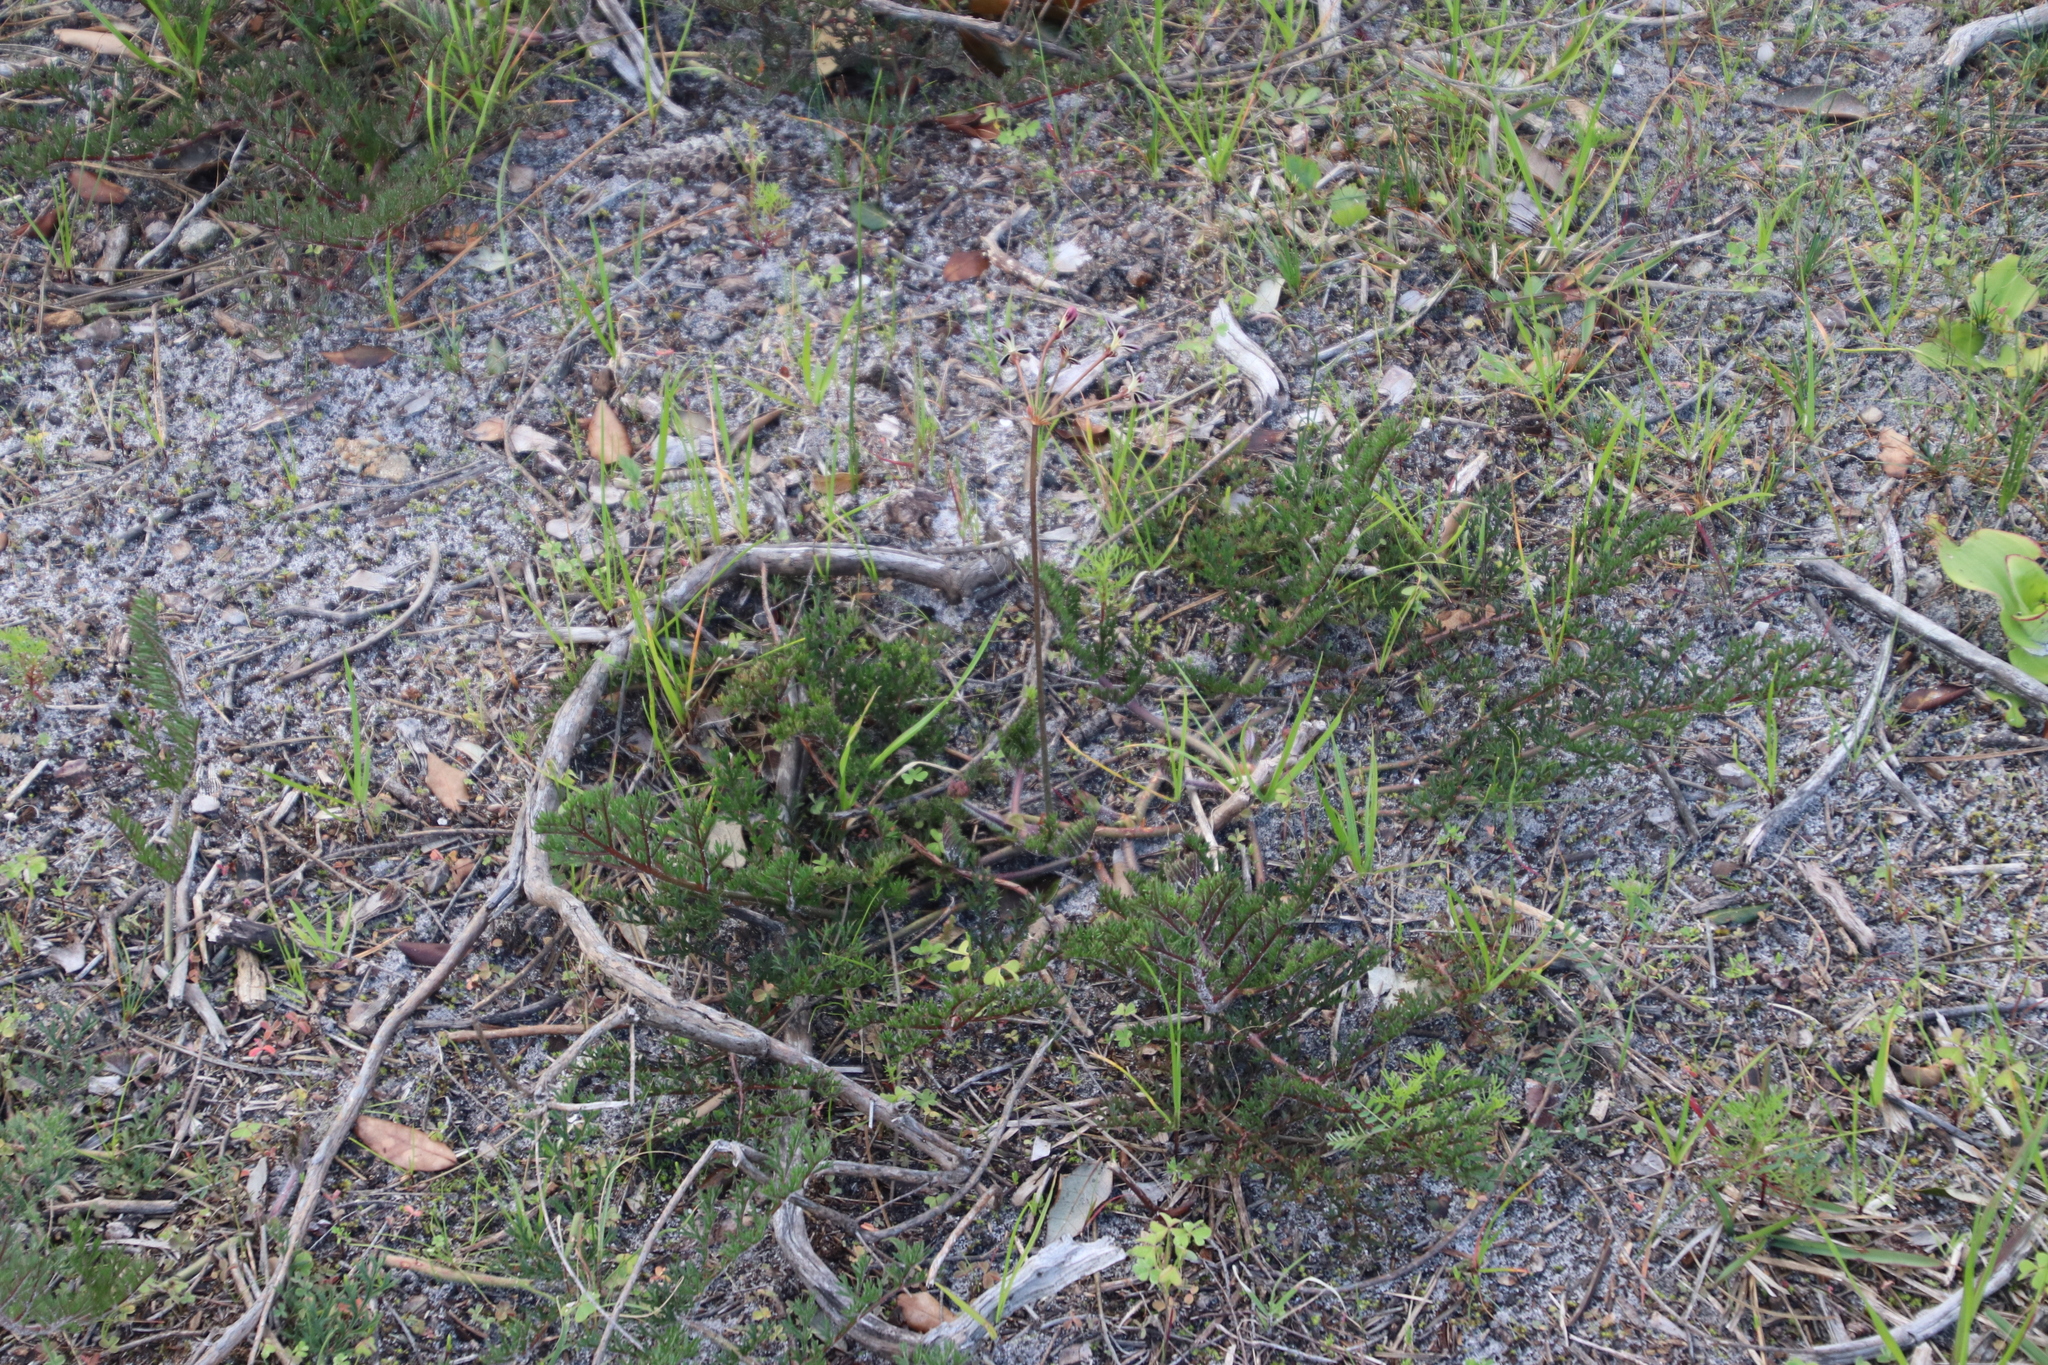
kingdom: Plantae
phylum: Tracheophyta
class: Magnoliopsida
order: Geraniales
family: Geraniaceae
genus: Pelargonium
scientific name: Pelargonium triste
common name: Night-scent pelargonium
